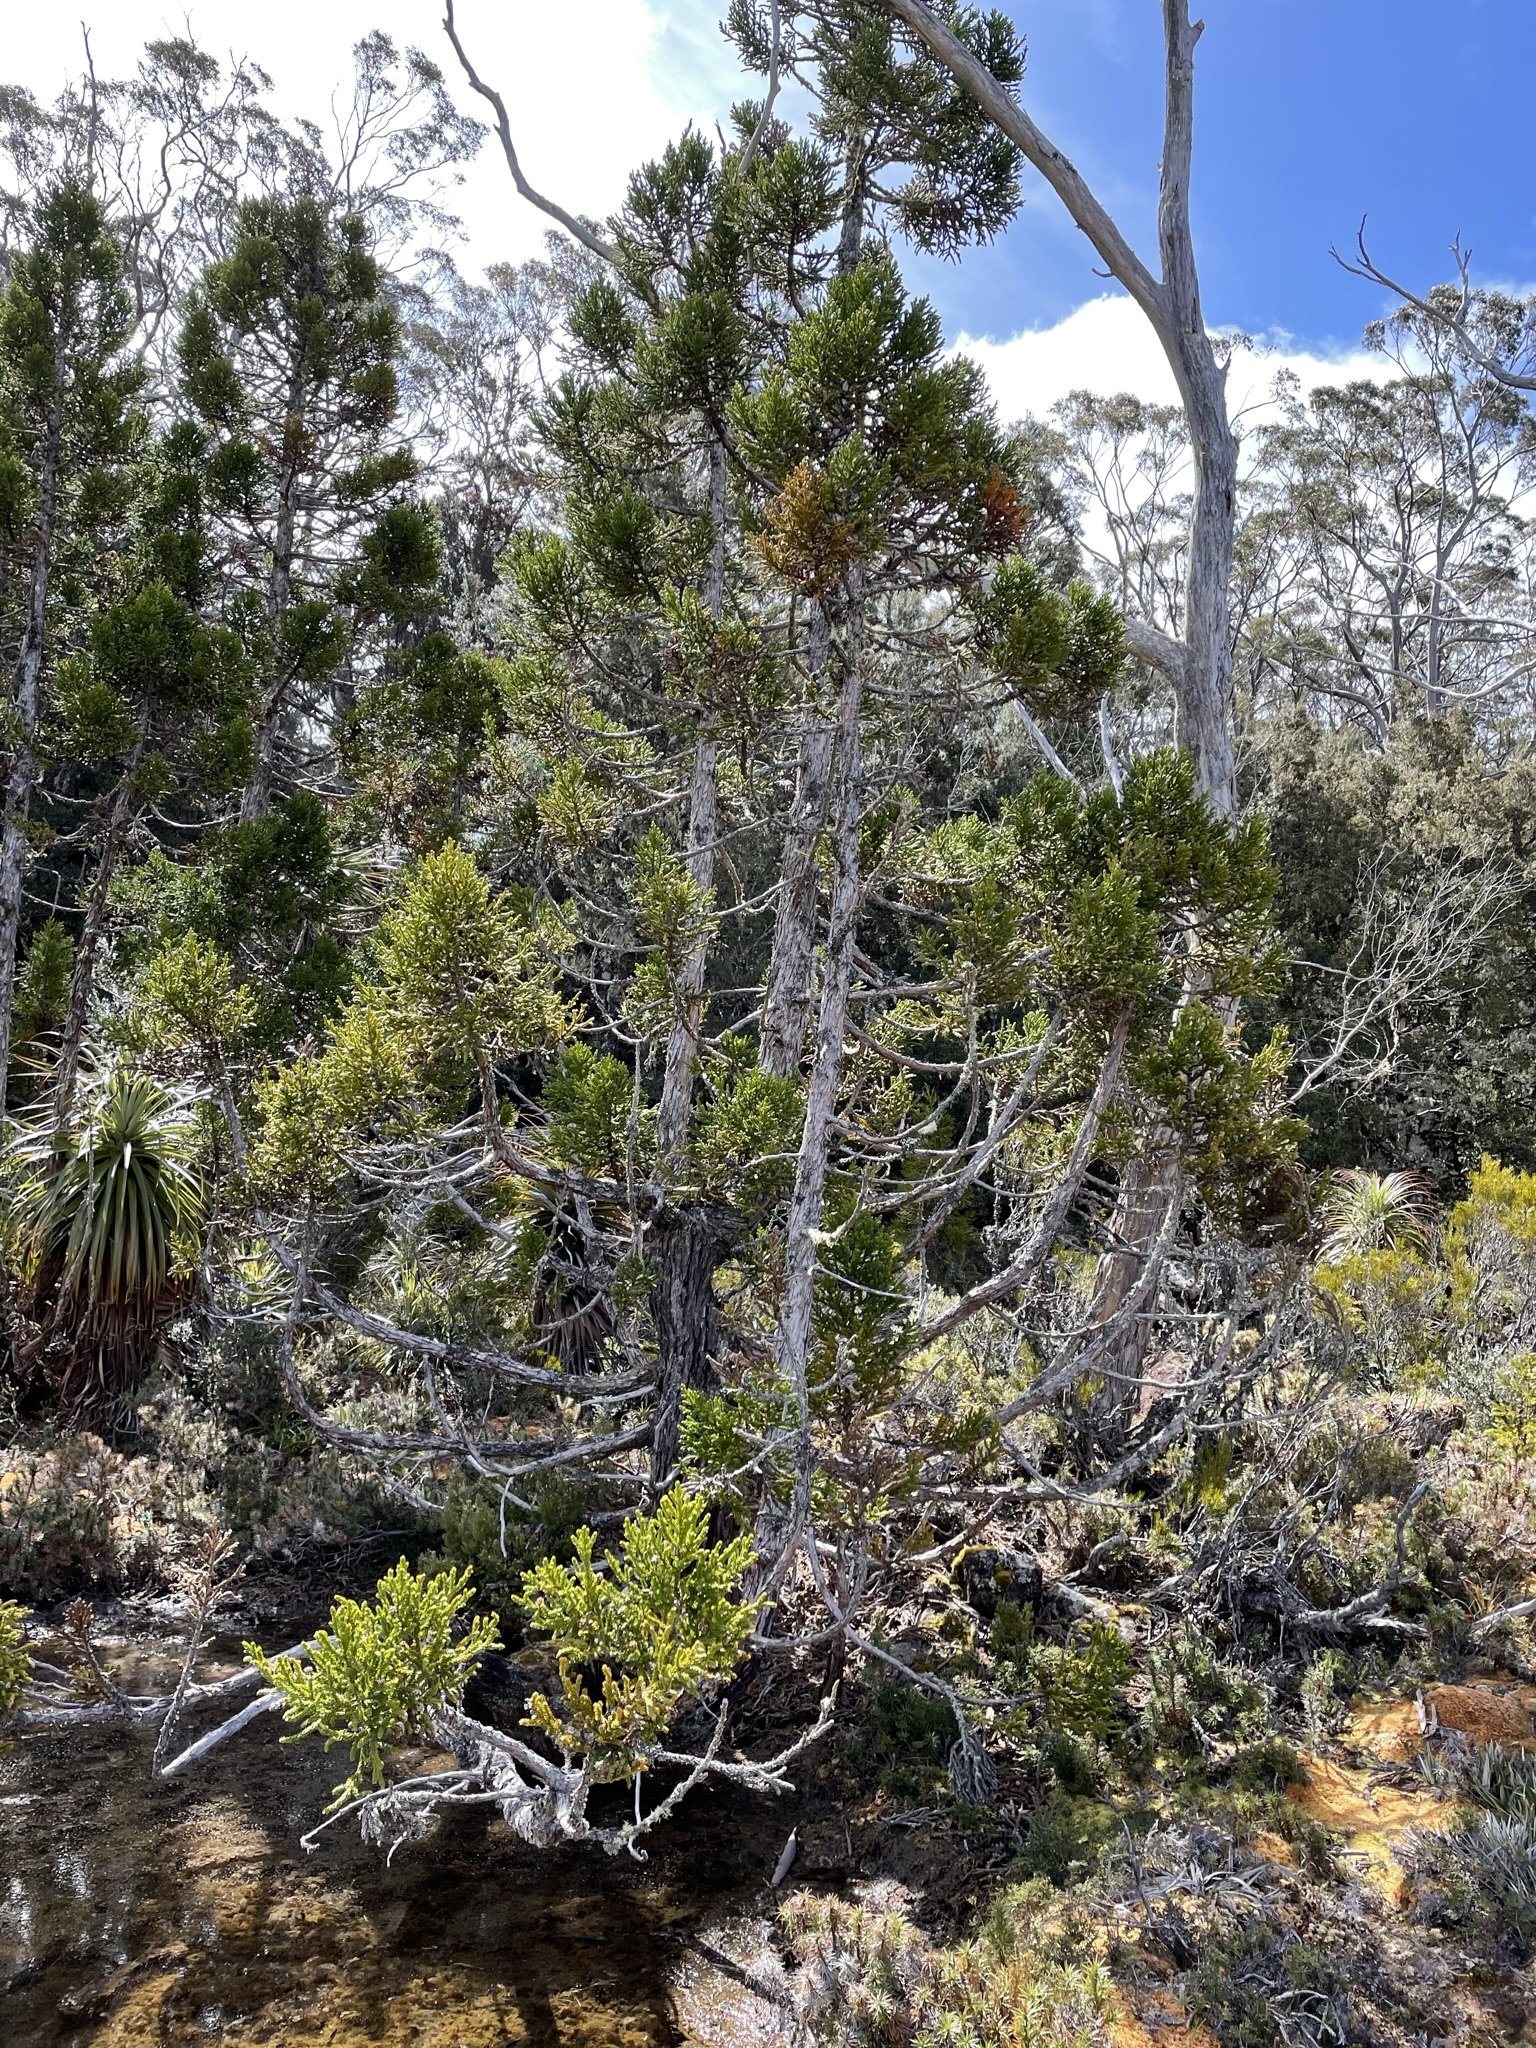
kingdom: Plantae
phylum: Tracheophyta
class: Pinopsida
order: Pinales
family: Cupressaceae
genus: Athrotaxis
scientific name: Athrotaxis selaginoides
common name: King william pine
